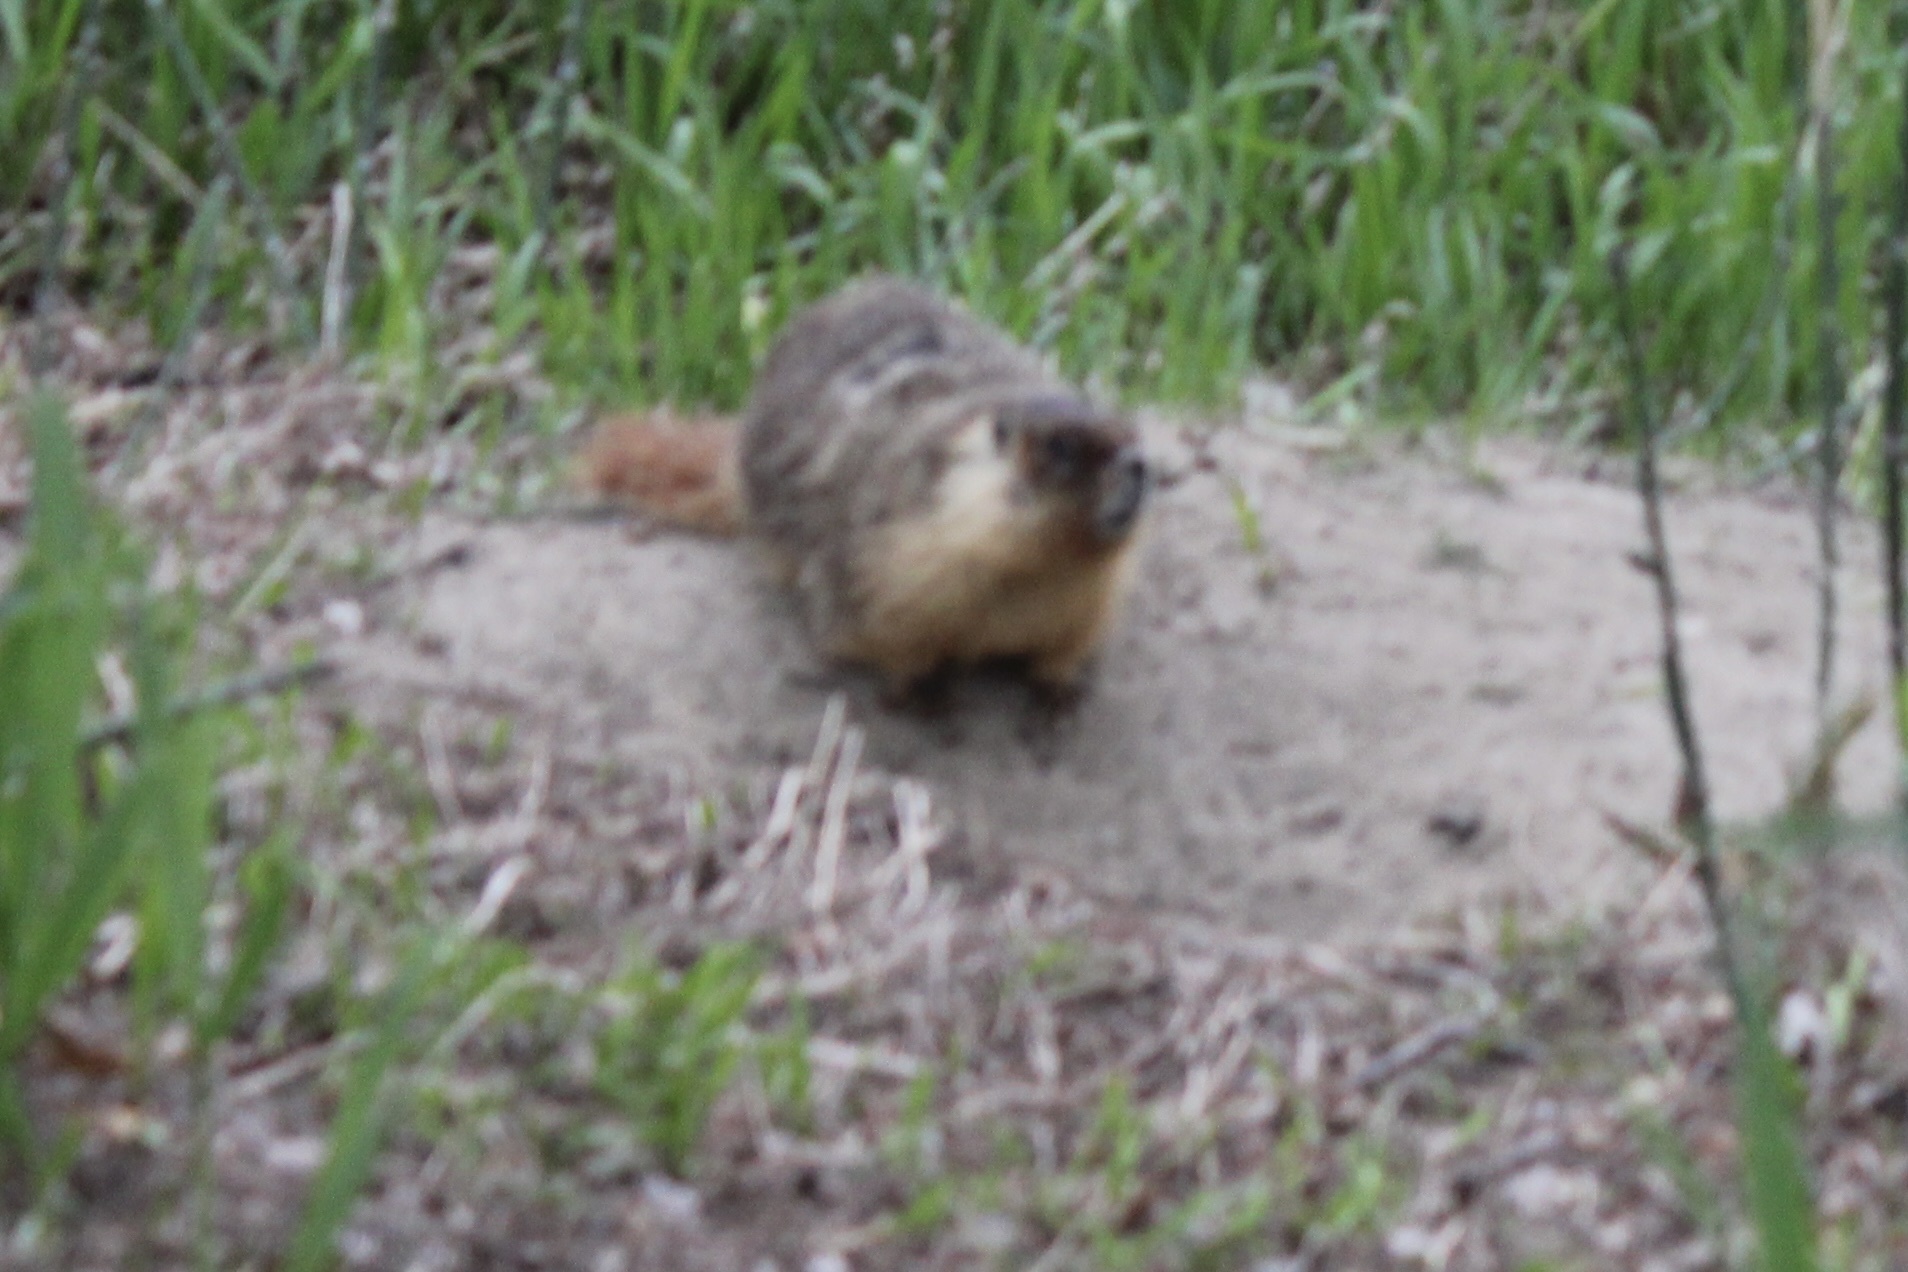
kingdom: Animalia
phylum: Chordata
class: Mammalia
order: Rodentia
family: Sciuridae
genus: Marmota
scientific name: Marmota flaviventris
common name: Yellow-bellied marmot
